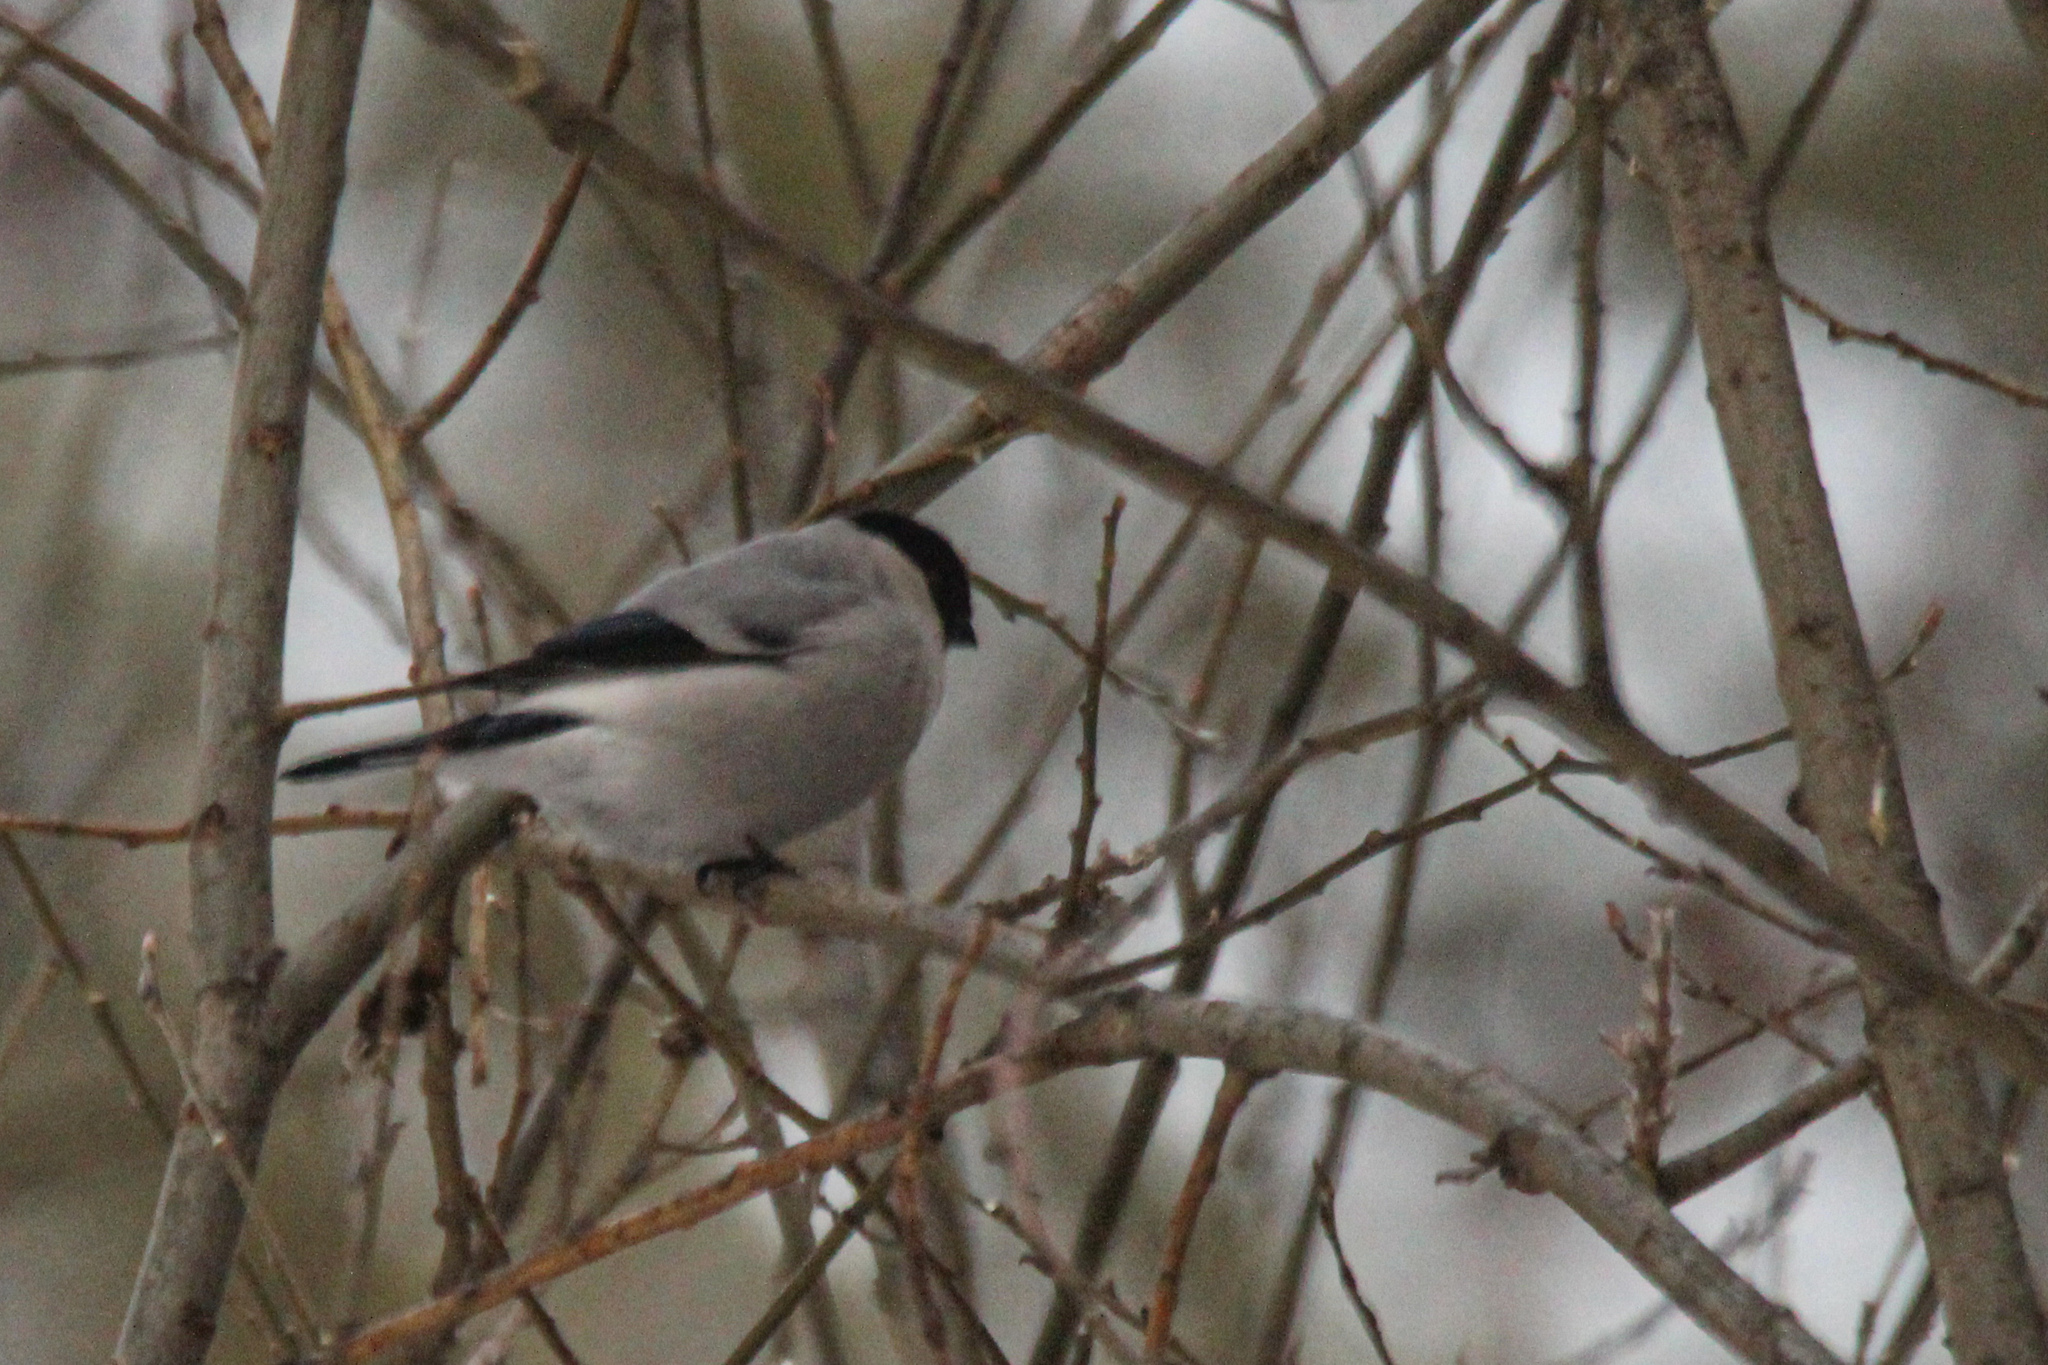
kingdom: Animalia
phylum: Chordata
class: Aves
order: Passeriformes
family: Fringillidae
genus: Pyrrhula
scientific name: Pyrrhula pyrrhula
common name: Eurasian bullfinch
